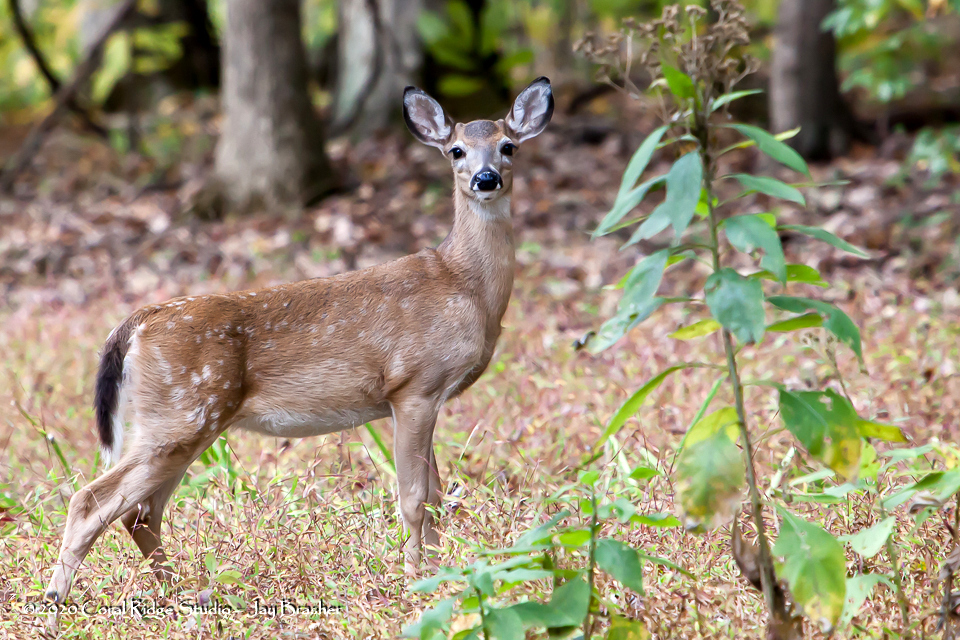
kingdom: Animalia
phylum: Chordata
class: Mammalia
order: Artiodactyla
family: Cervidae
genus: Odocoileus
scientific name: Odocoileus virginianus
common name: White-tailed deer
